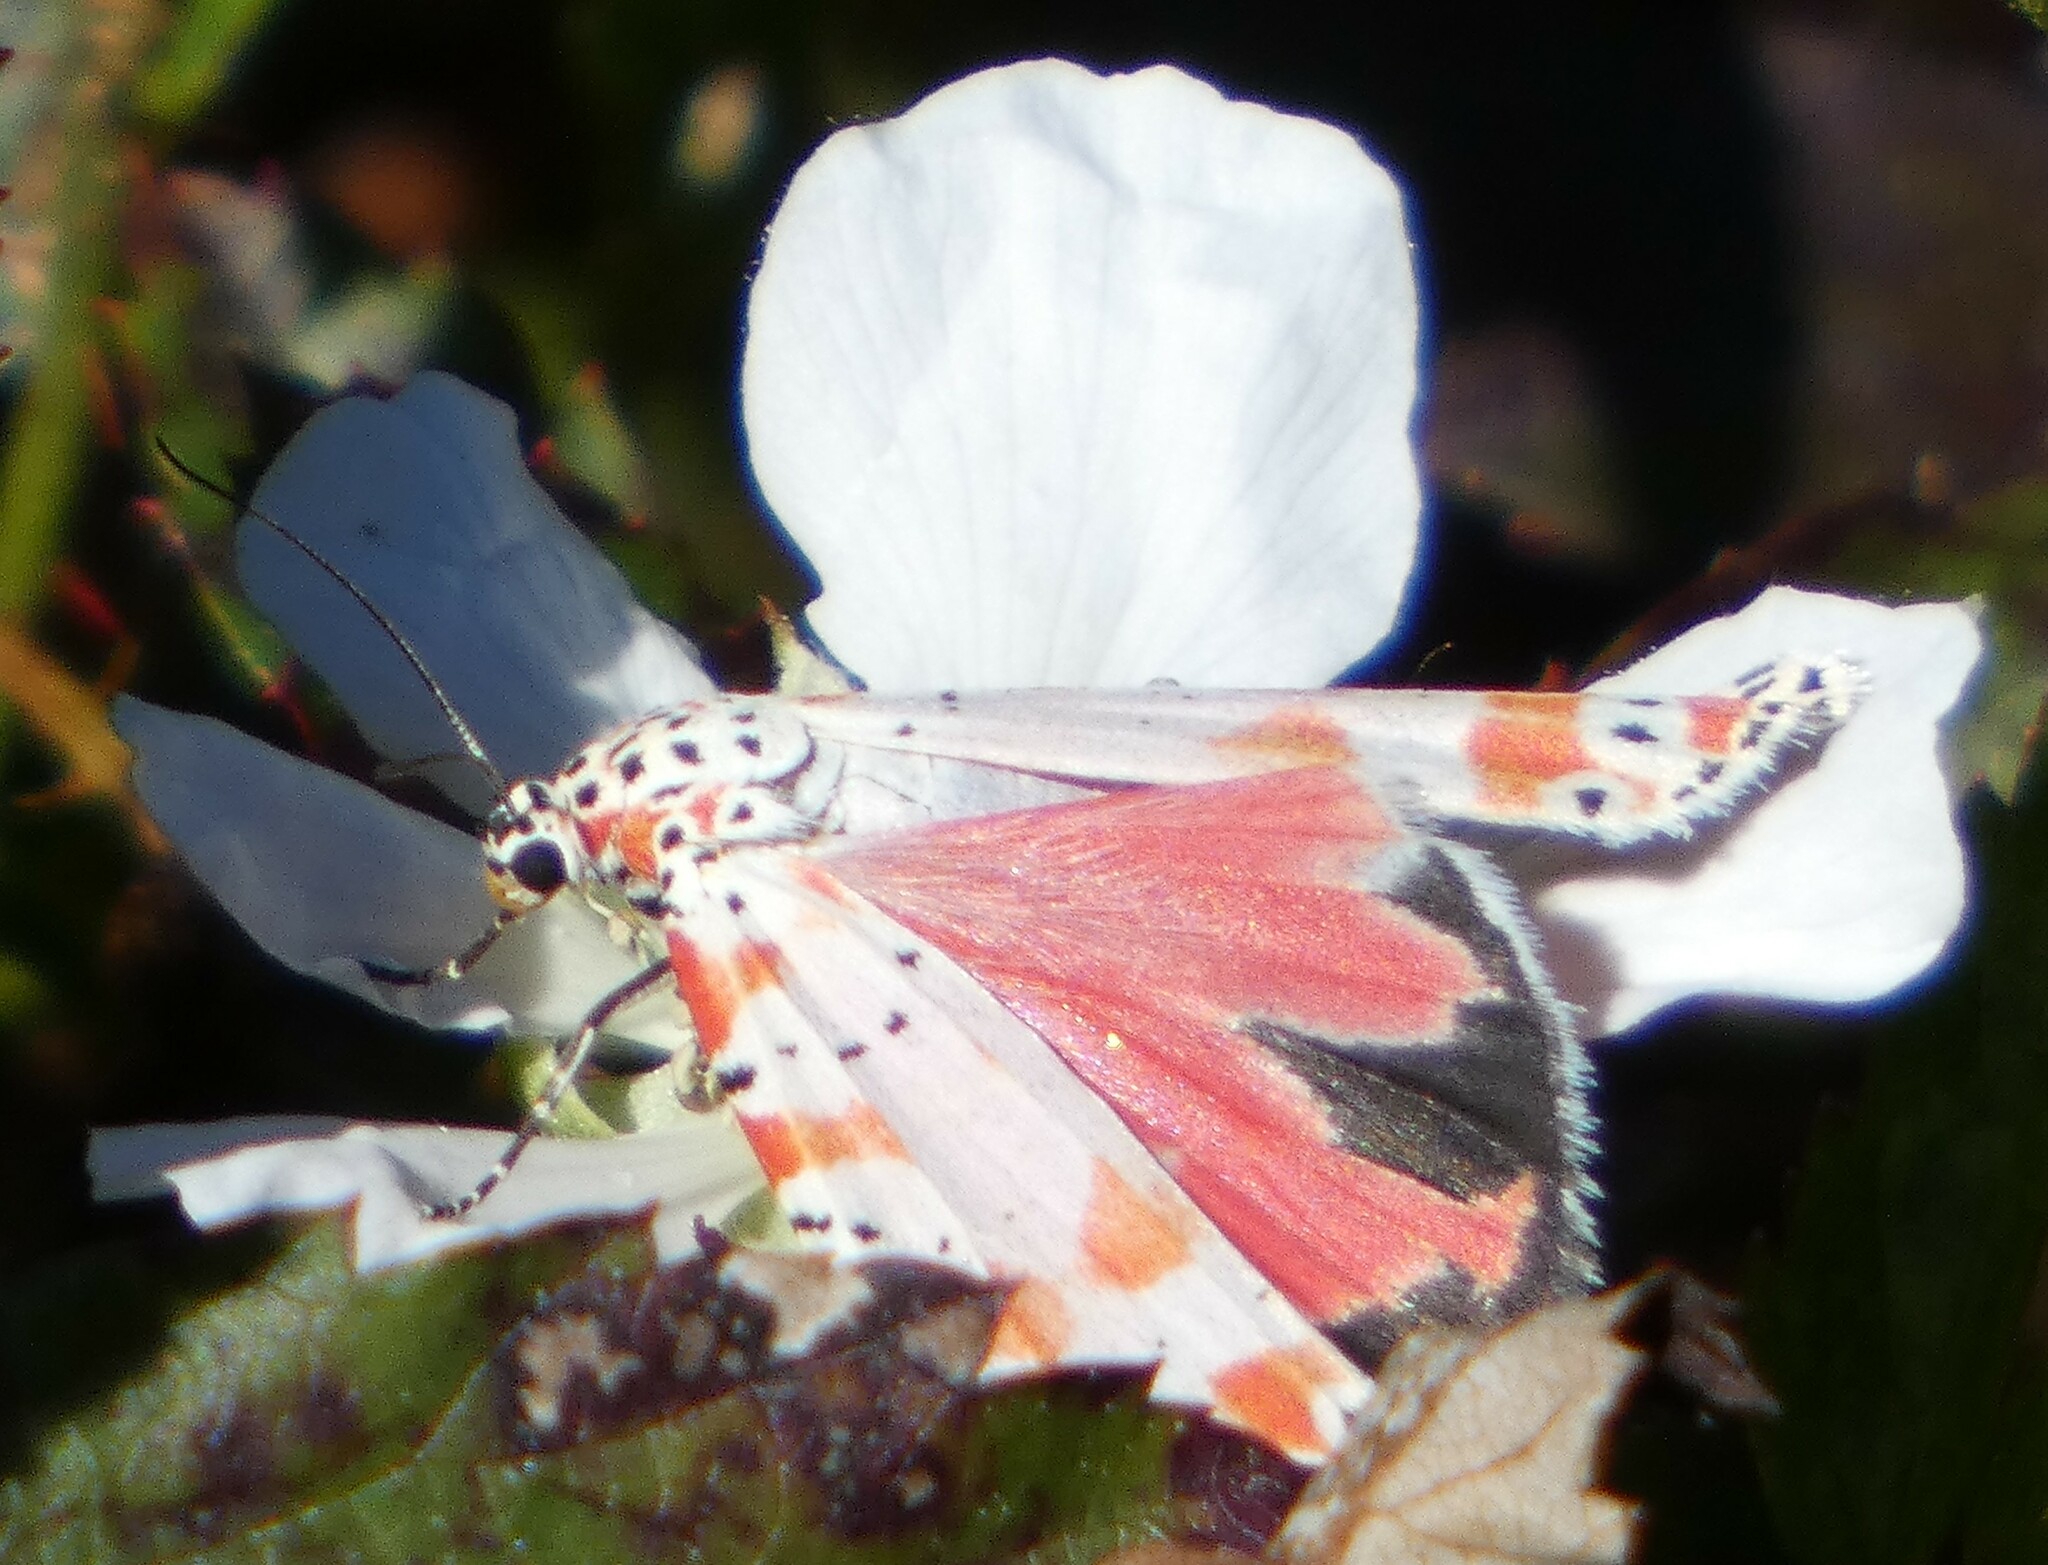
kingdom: Animalia
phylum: Arthropoda
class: Insecta
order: Lepidoptera
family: Erebidae
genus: Utetheisa
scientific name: Utetheisa ornatrix
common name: Beautiful utetheisa
